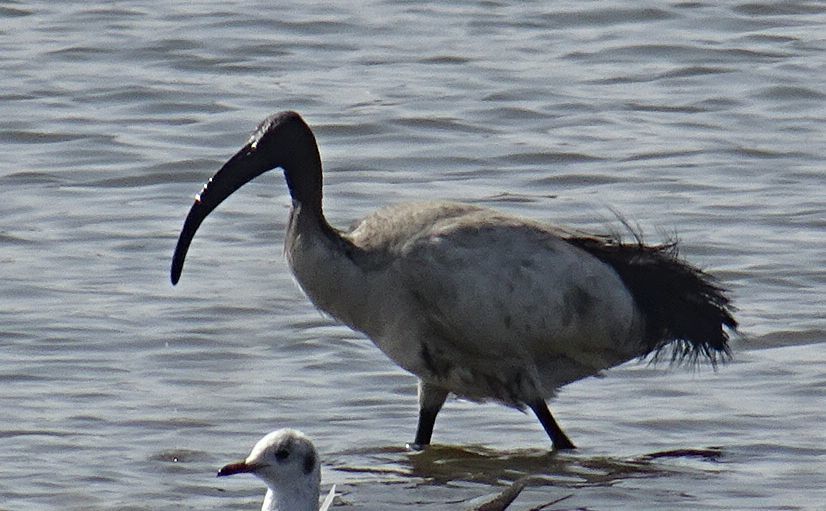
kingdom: Animalia
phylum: Chordata
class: Aves
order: Pelecaniformes
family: Threskiornithidae
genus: Threskiornis
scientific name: Threskiornis aethiopicus
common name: Sacred ibis
